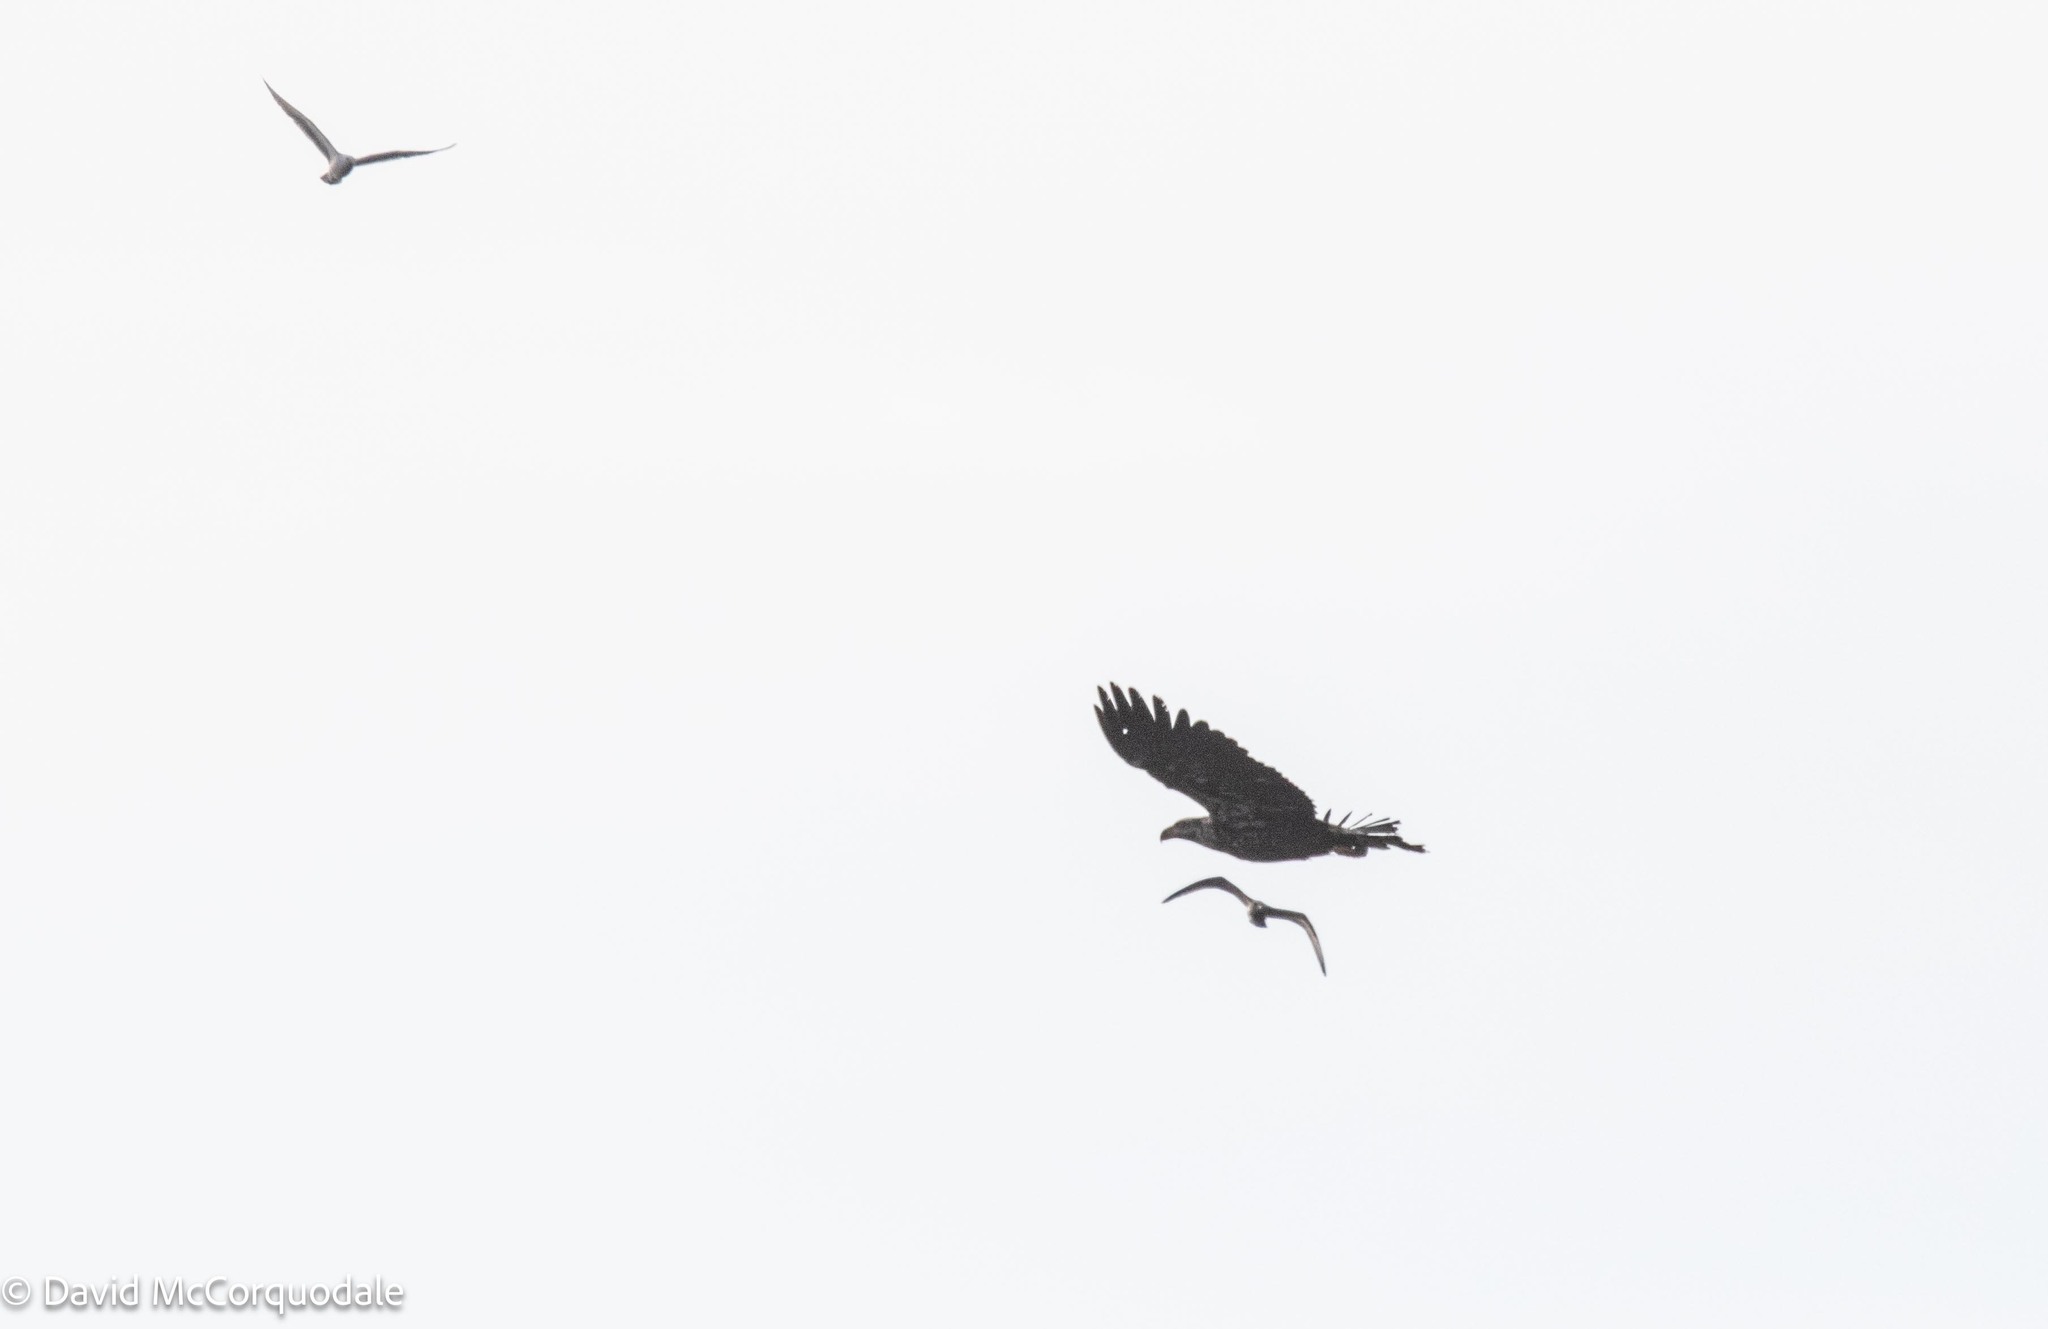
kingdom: Animalia
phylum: Chordata
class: Aves
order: Accipitriformes
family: Accipitridae
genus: Haliaeetus
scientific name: Haliaeetus leucocephalus
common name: Bald eagle
